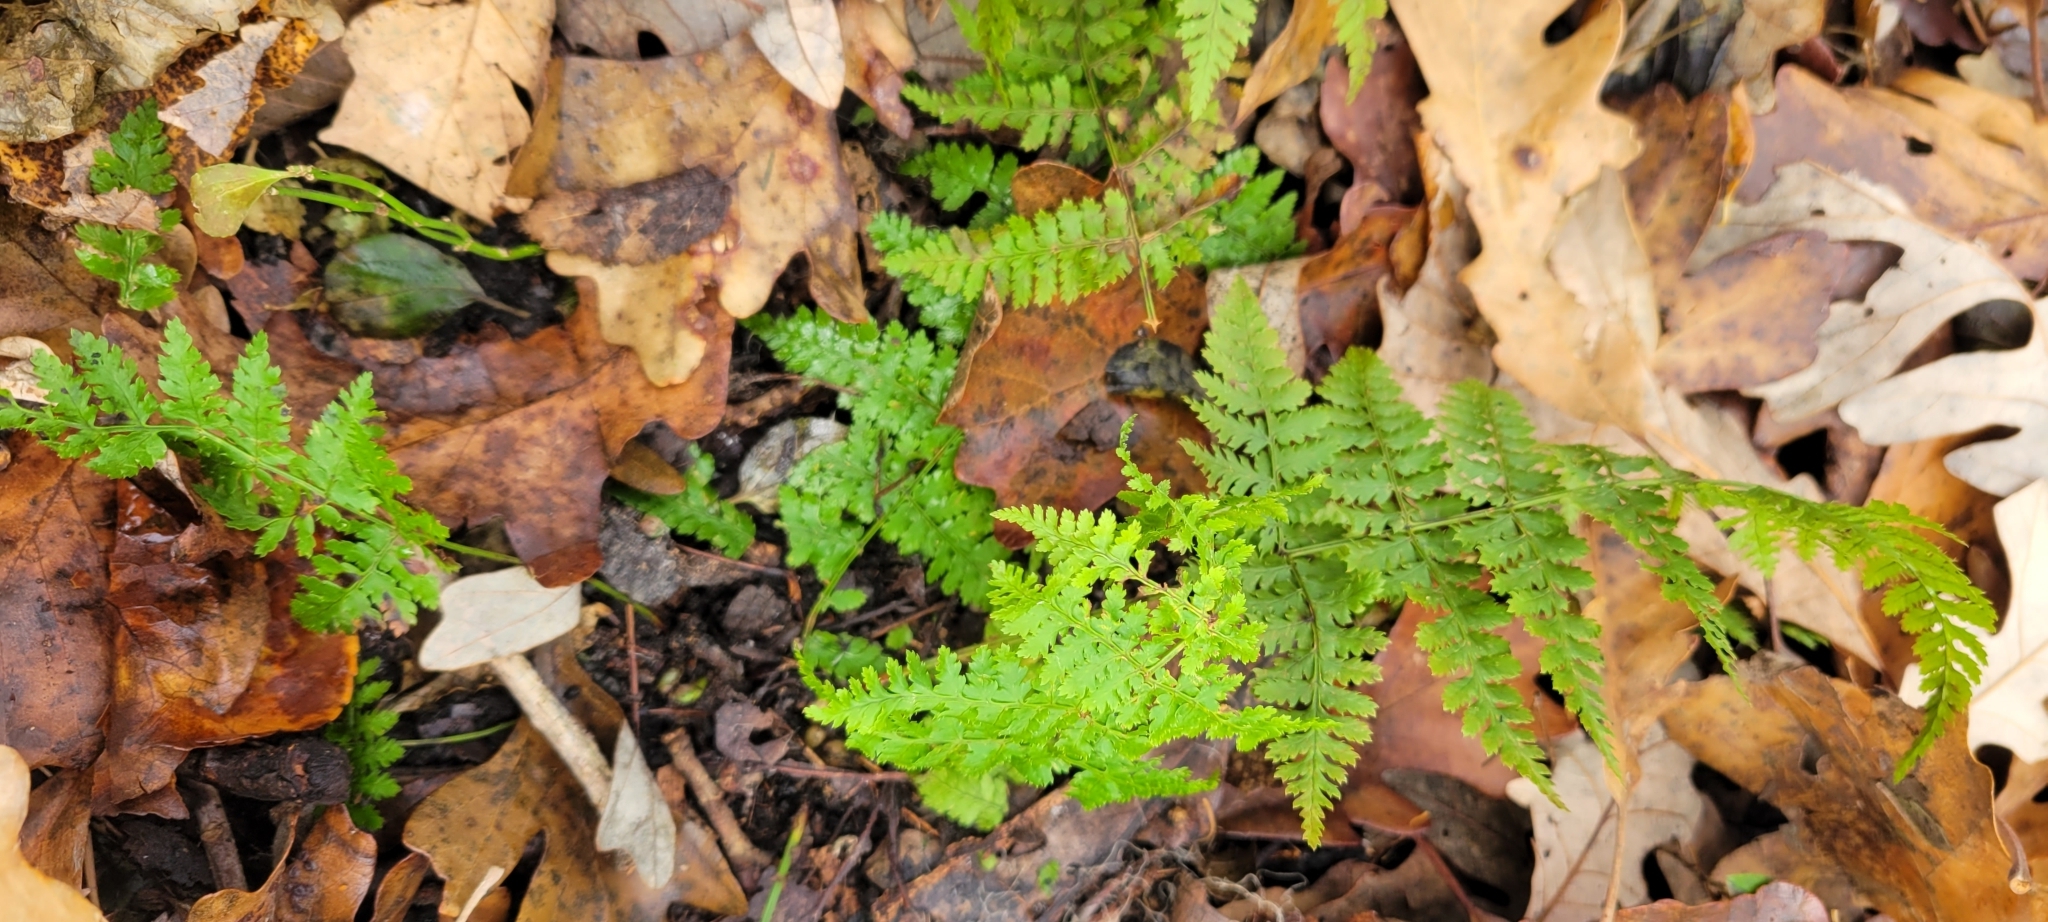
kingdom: Plantae
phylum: Tracheophyta
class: Polypodiopsida
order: Polypodiales
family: Dryopteridaceae
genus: Dryopteris
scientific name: Dryopteris intermedia
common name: Evergreen wood fern
